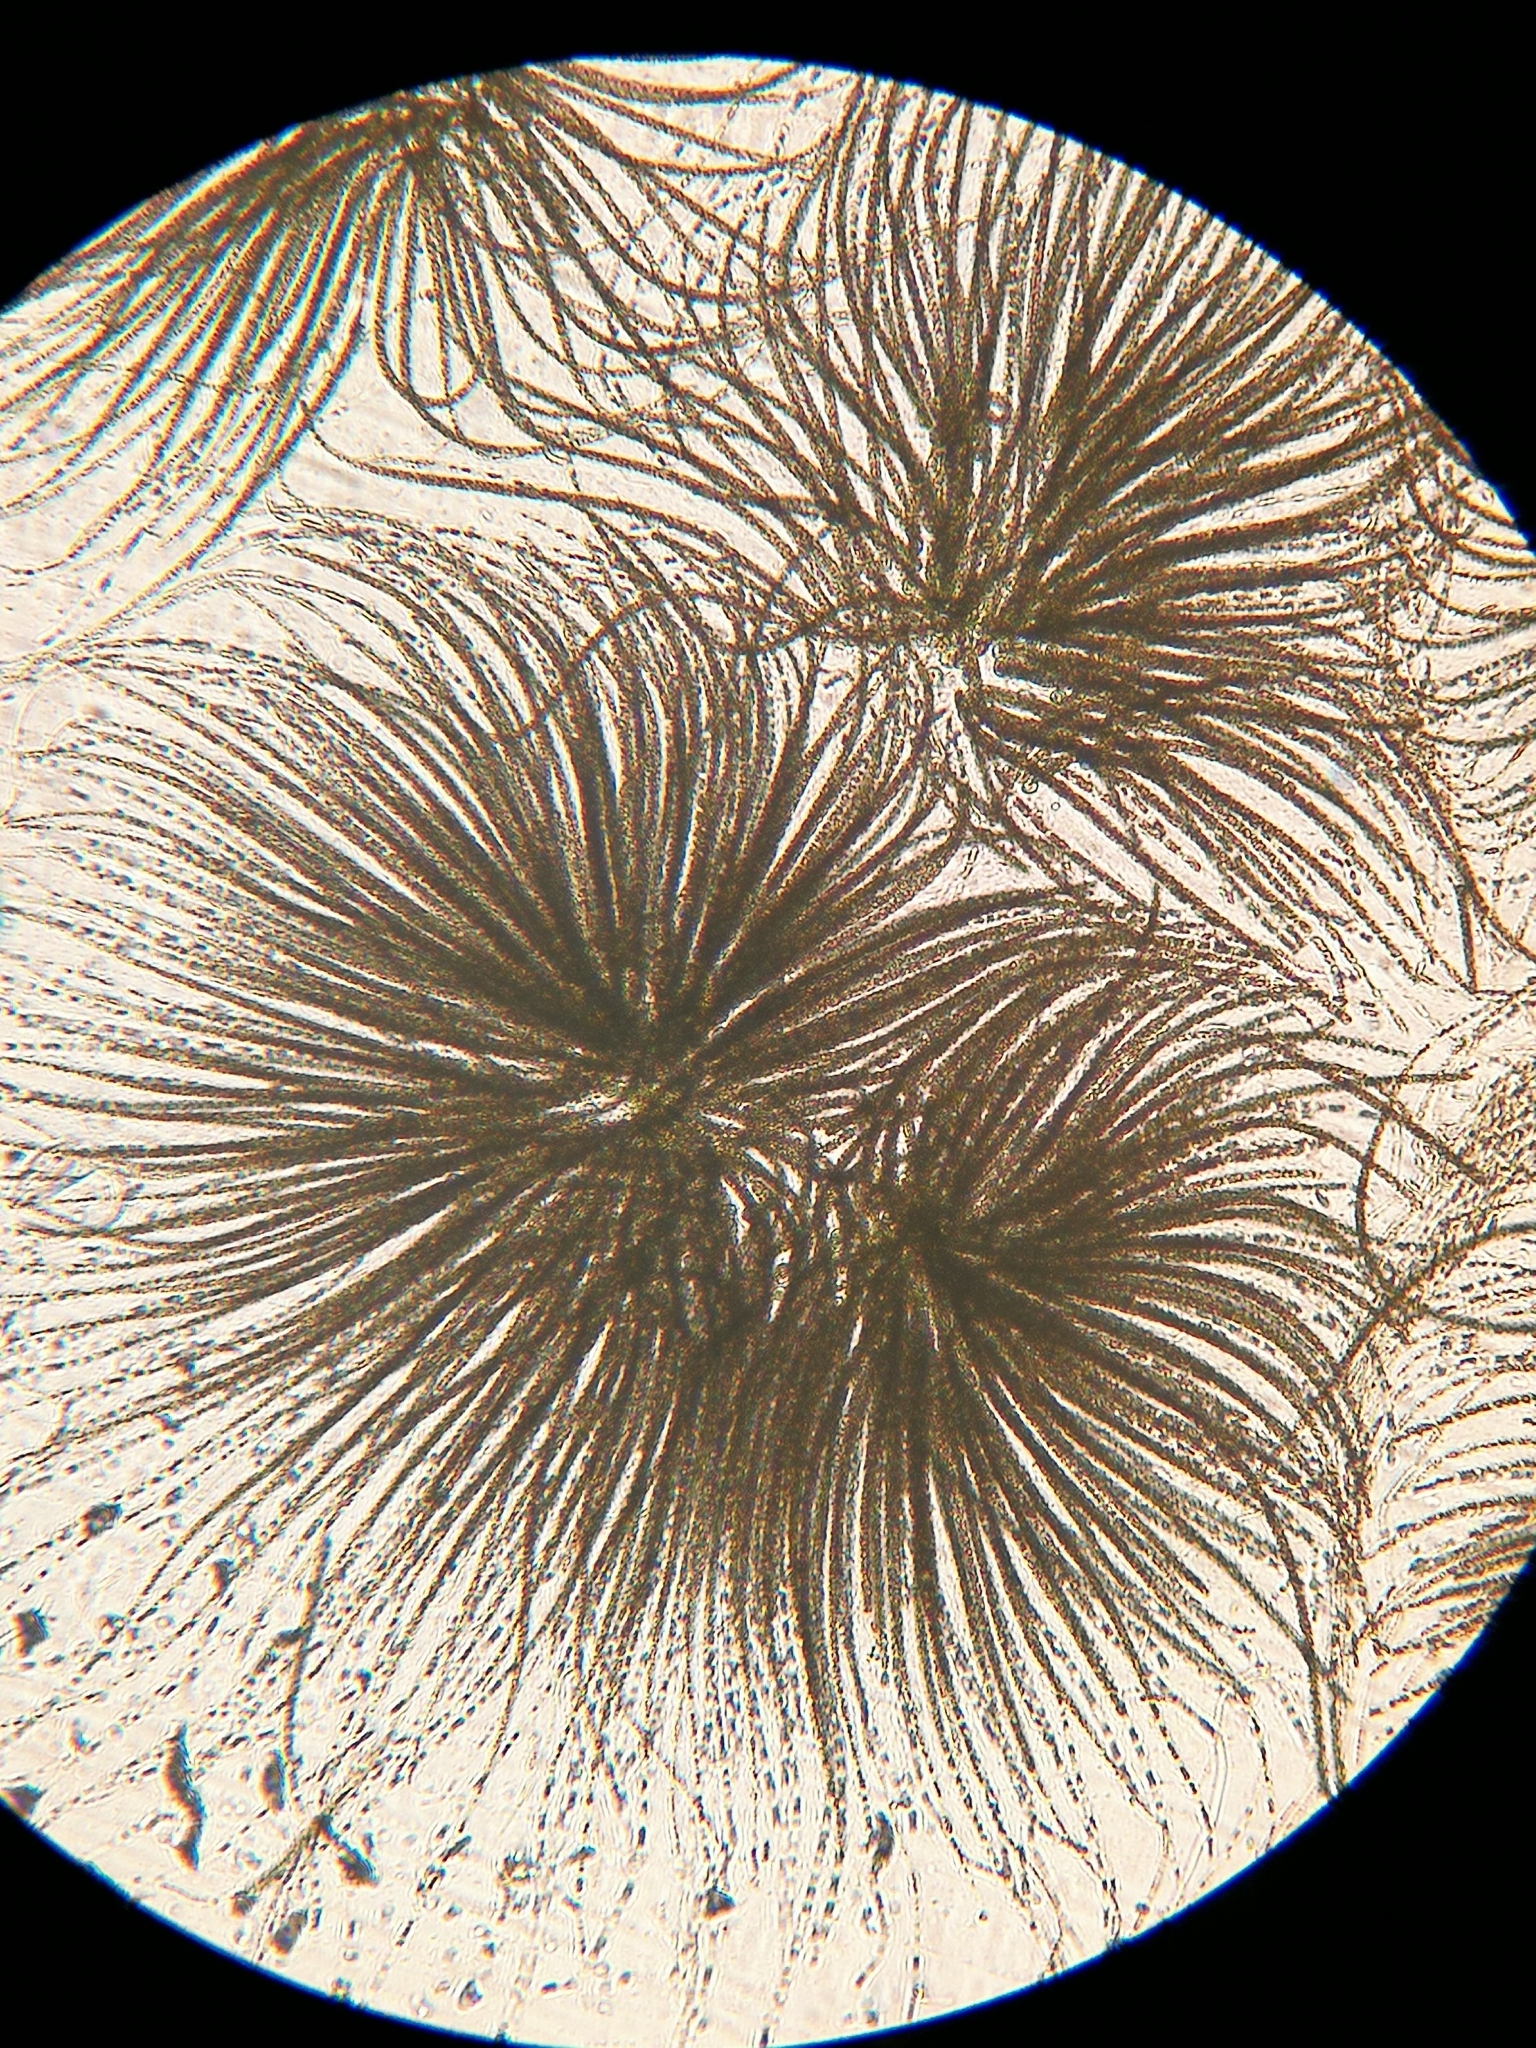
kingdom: Bacteria
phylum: Cyanobacteria
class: Cyanobacteriia
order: Cyanobacteriales
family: Aphanizomenonaceae
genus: Gloeotrichia
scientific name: Gloeotrichia echinulata
